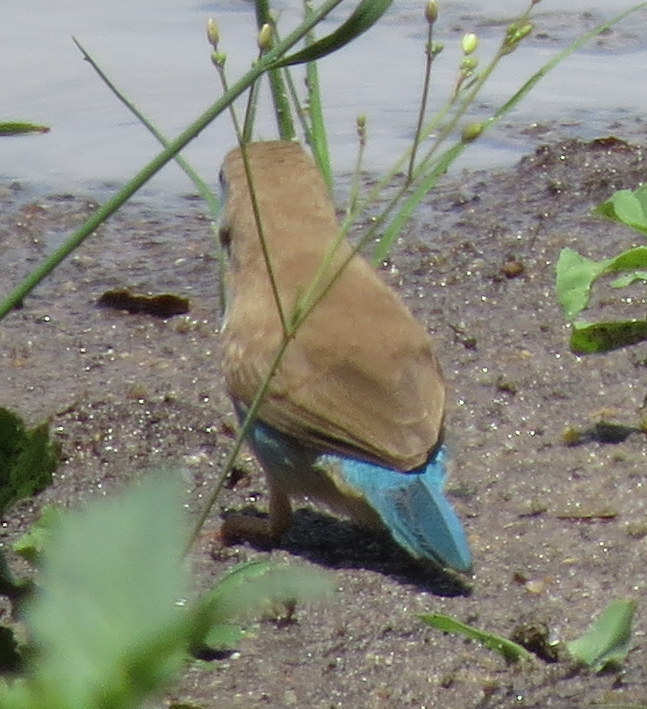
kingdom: Animalia
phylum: Chordata
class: Aves
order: Passeriformes
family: Estrildidae
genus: Uraeginthus
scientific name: Uraeginthus angolensis
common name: Blue waxbill
